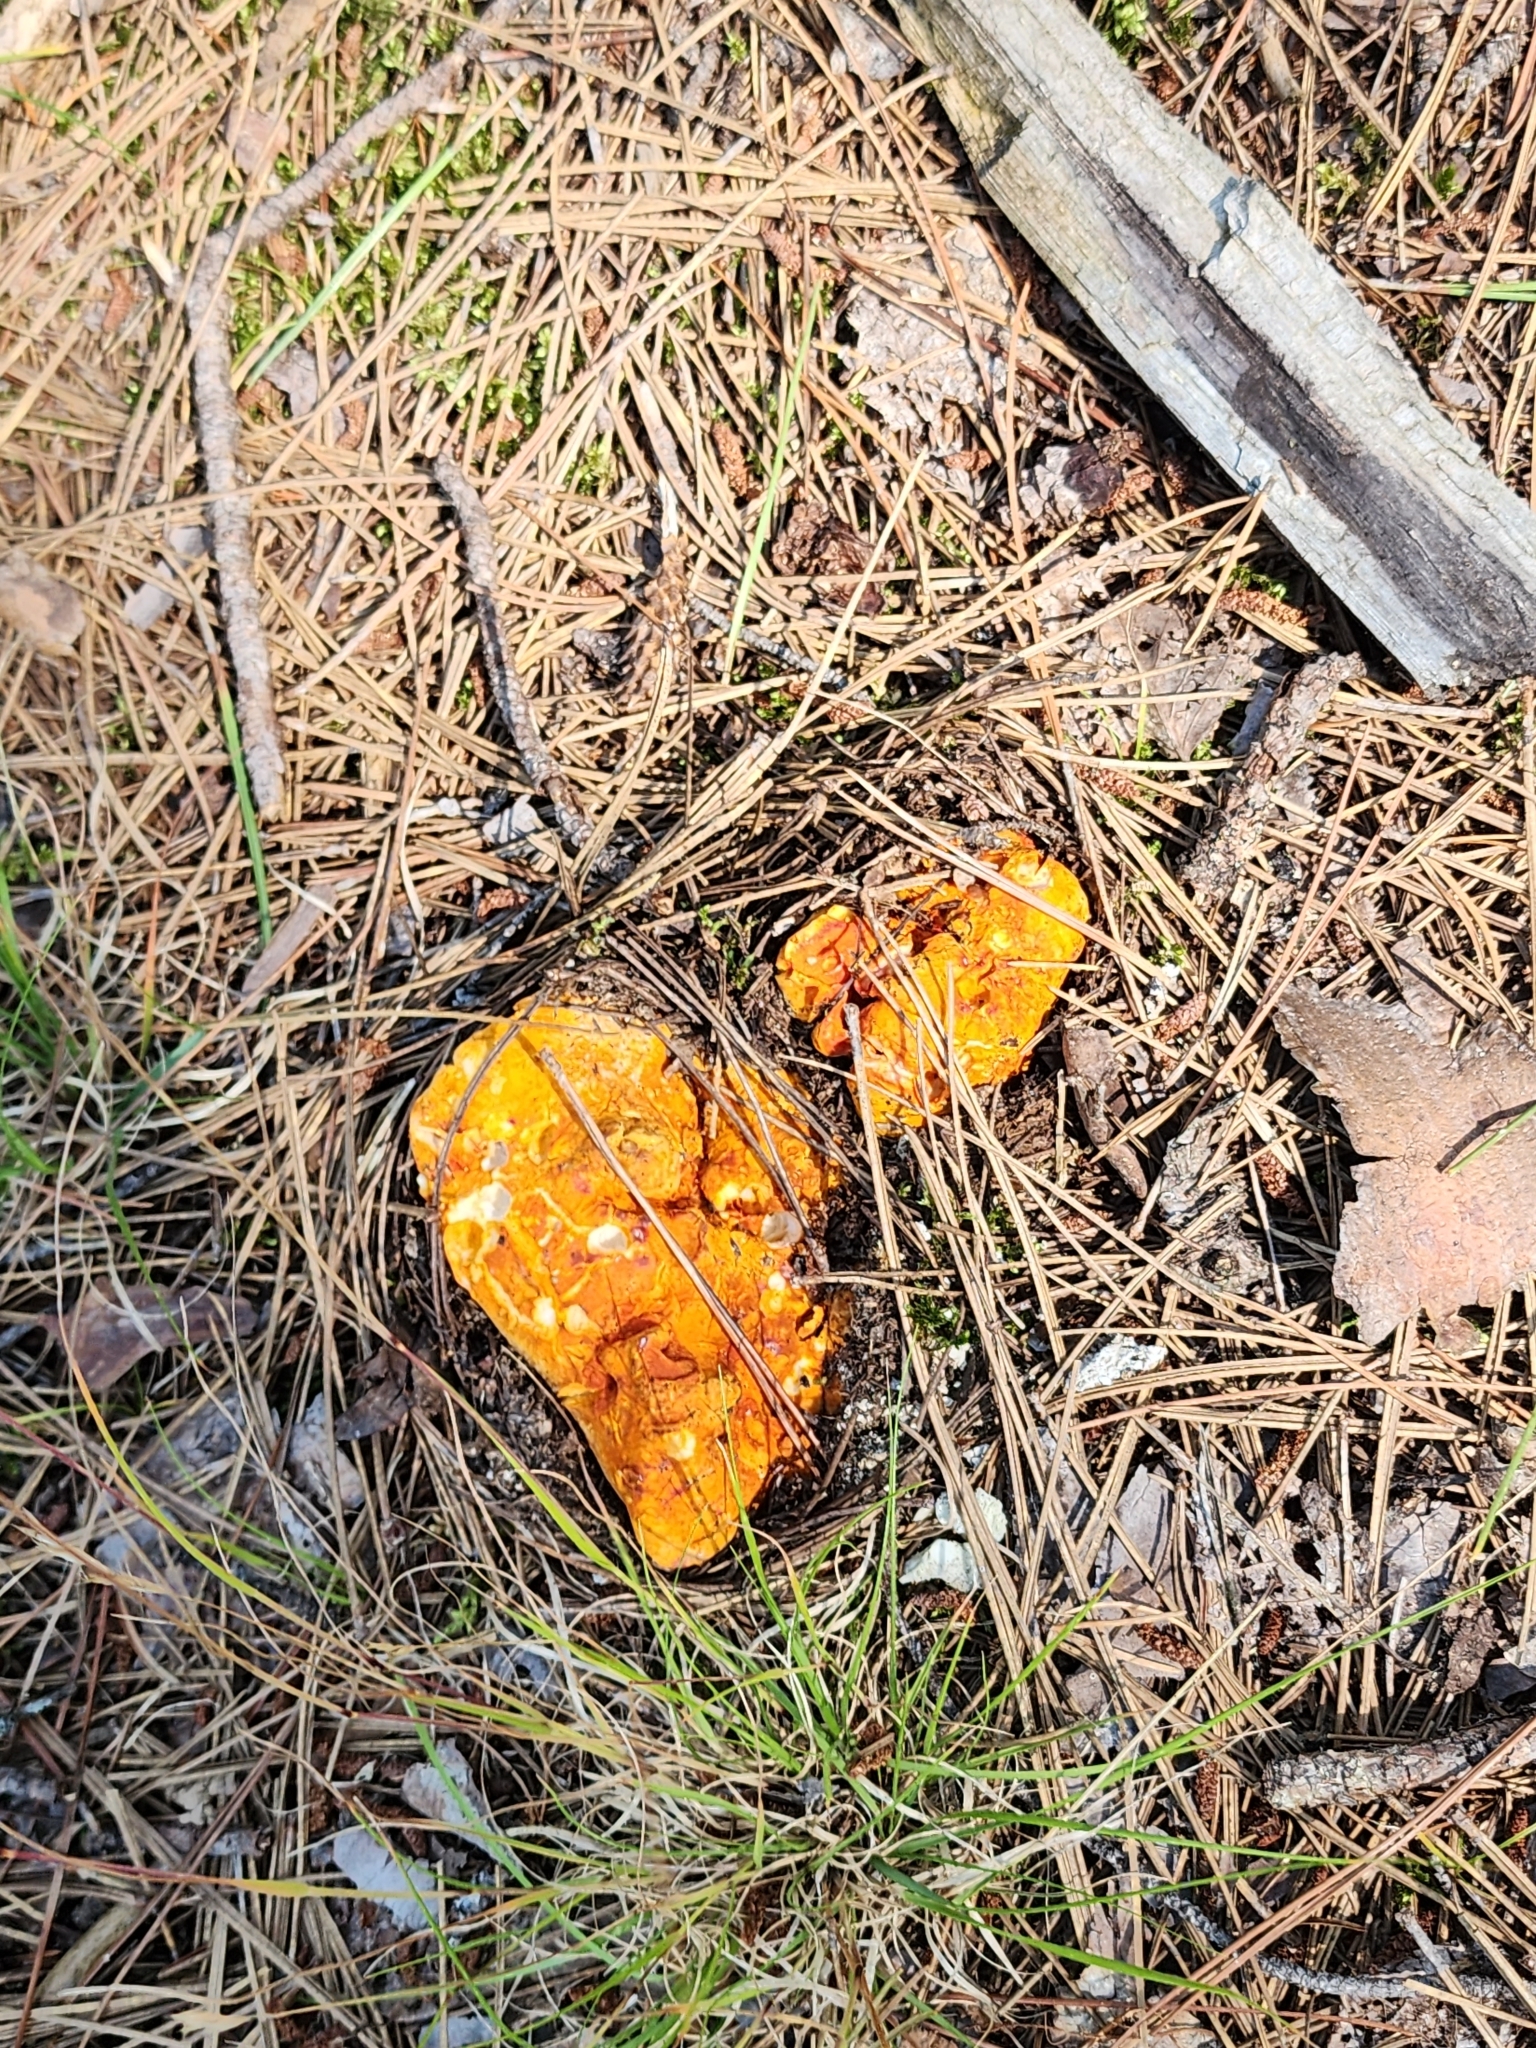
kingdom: Fungi
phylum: Ascomycota
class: Sordariomycetes
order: Hypocreales
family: Hypocreaceae
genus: Hypomyces
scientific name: Hypomyces lactifluorum
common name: Lobster mushroom
